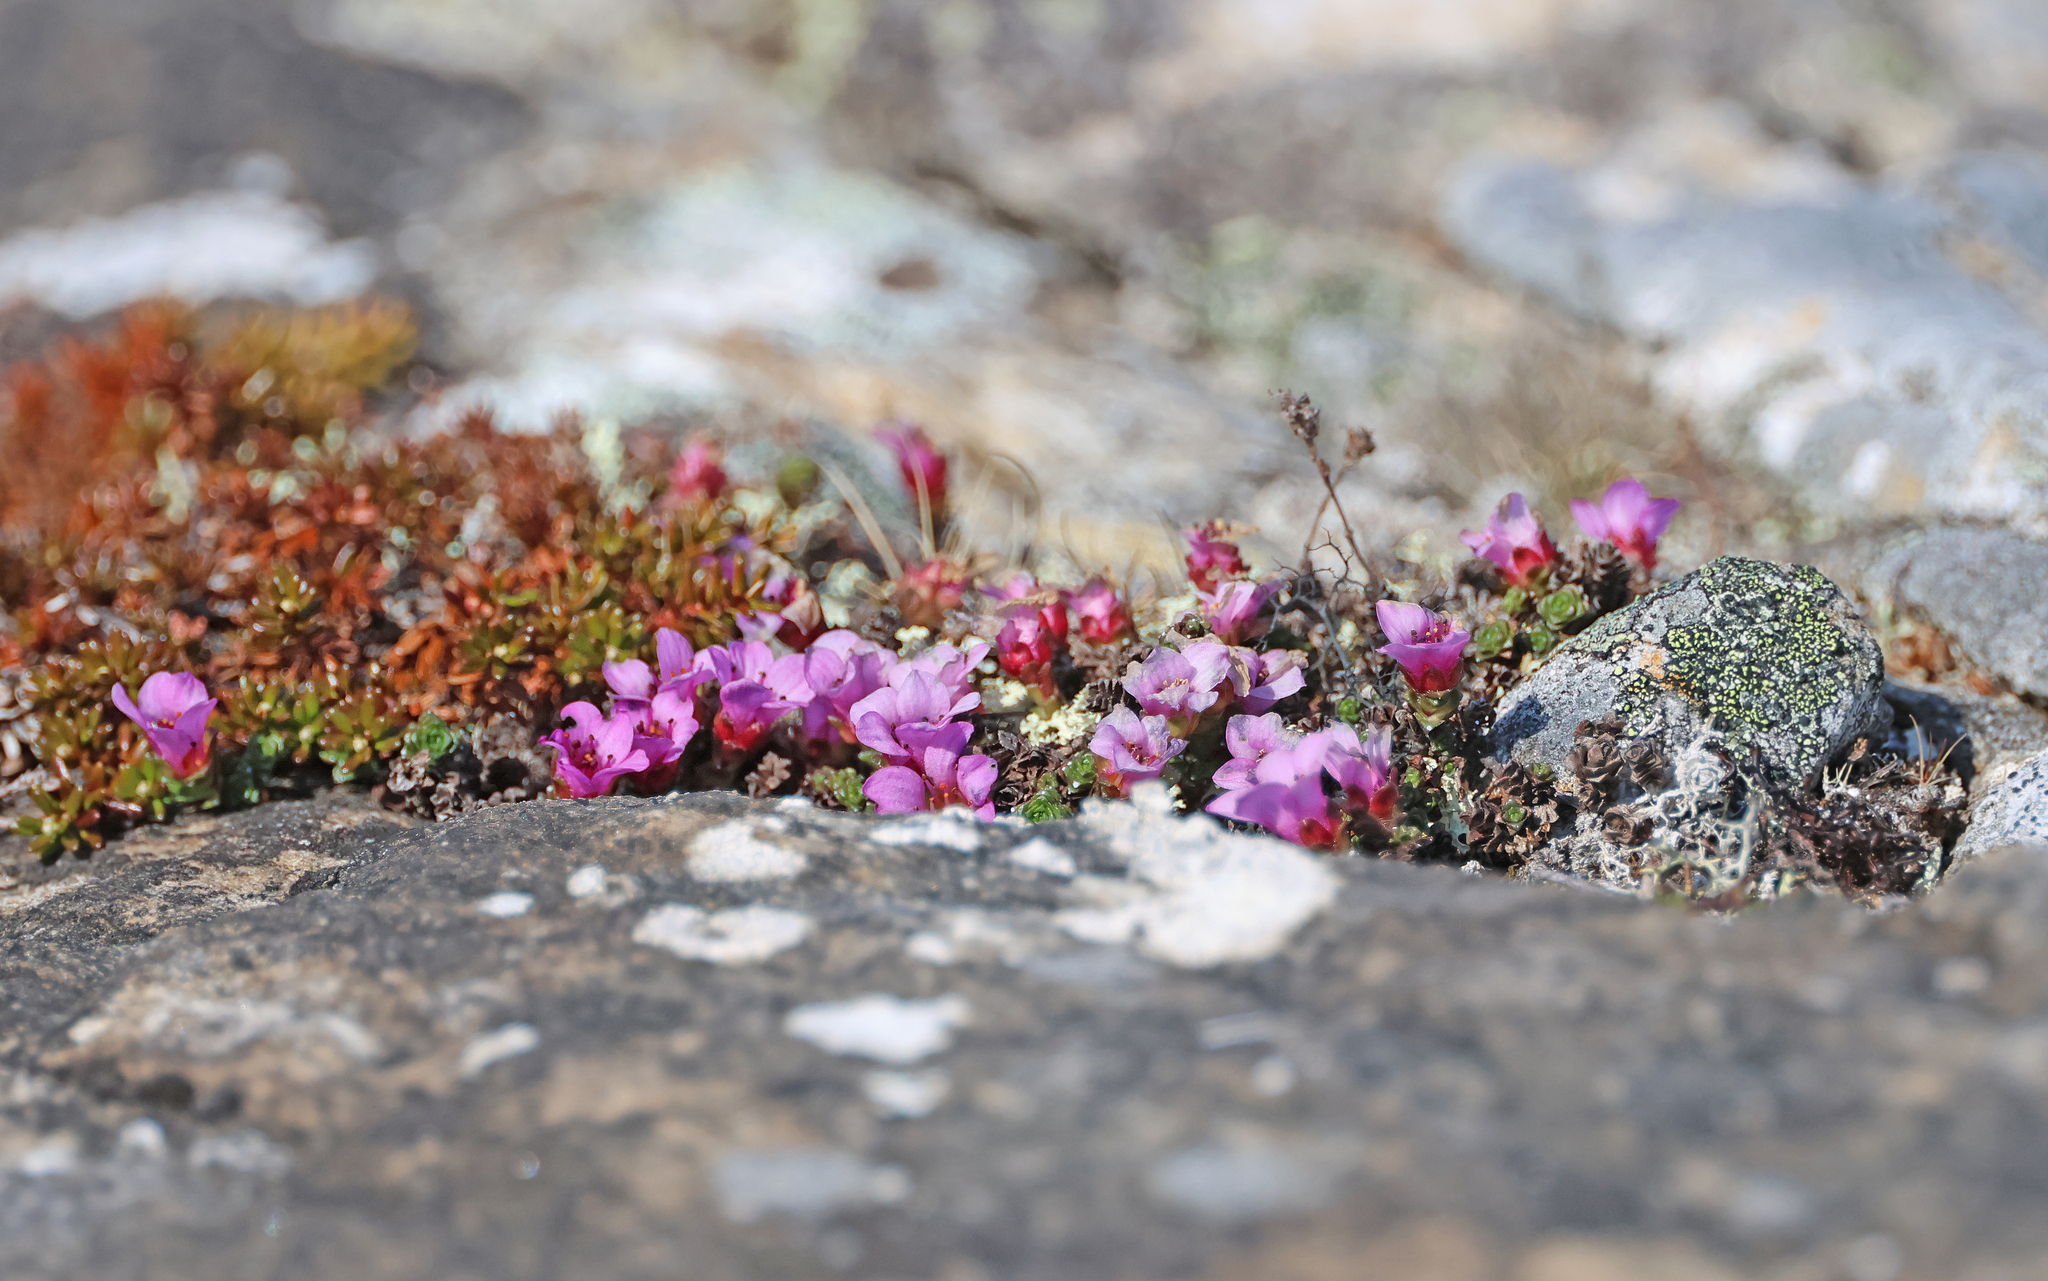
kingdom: Plantae
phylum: Tracheophyta
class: Magnoliopsida
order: Saxifragales
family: Saxifragaceae
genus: Saxifraga
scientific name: Saxifraga oppositifolia
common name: Purple saxifrage
